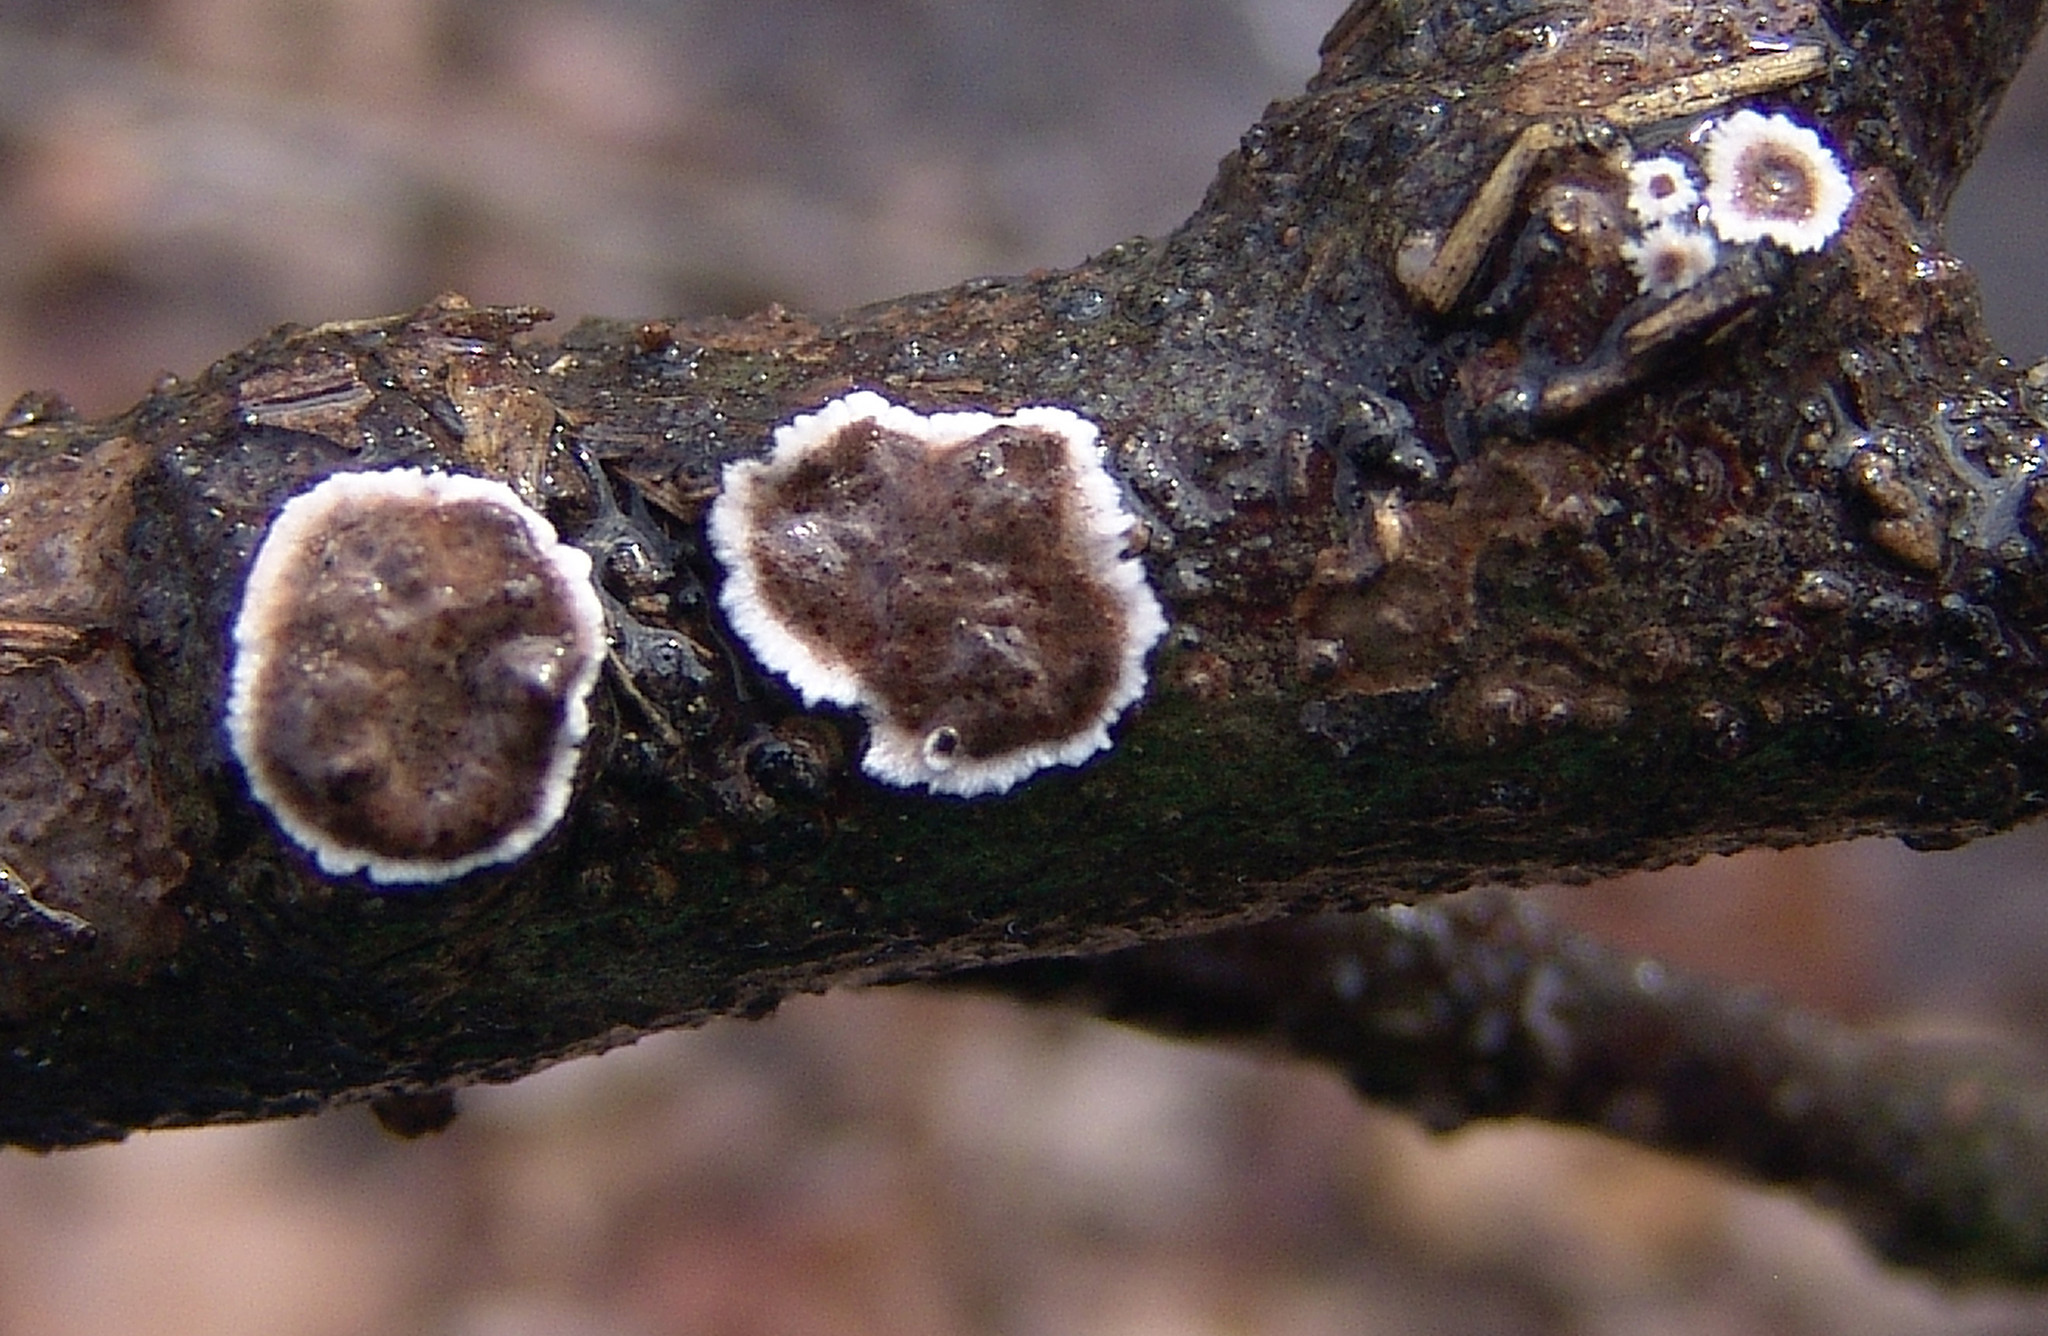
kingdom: Fungi
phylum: Basidiomycota
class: Agaricomycetes
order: Russulales
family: Peniophoraceae
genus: Peniophora
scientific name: Peniophora albobadia
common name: Giraffe spots
